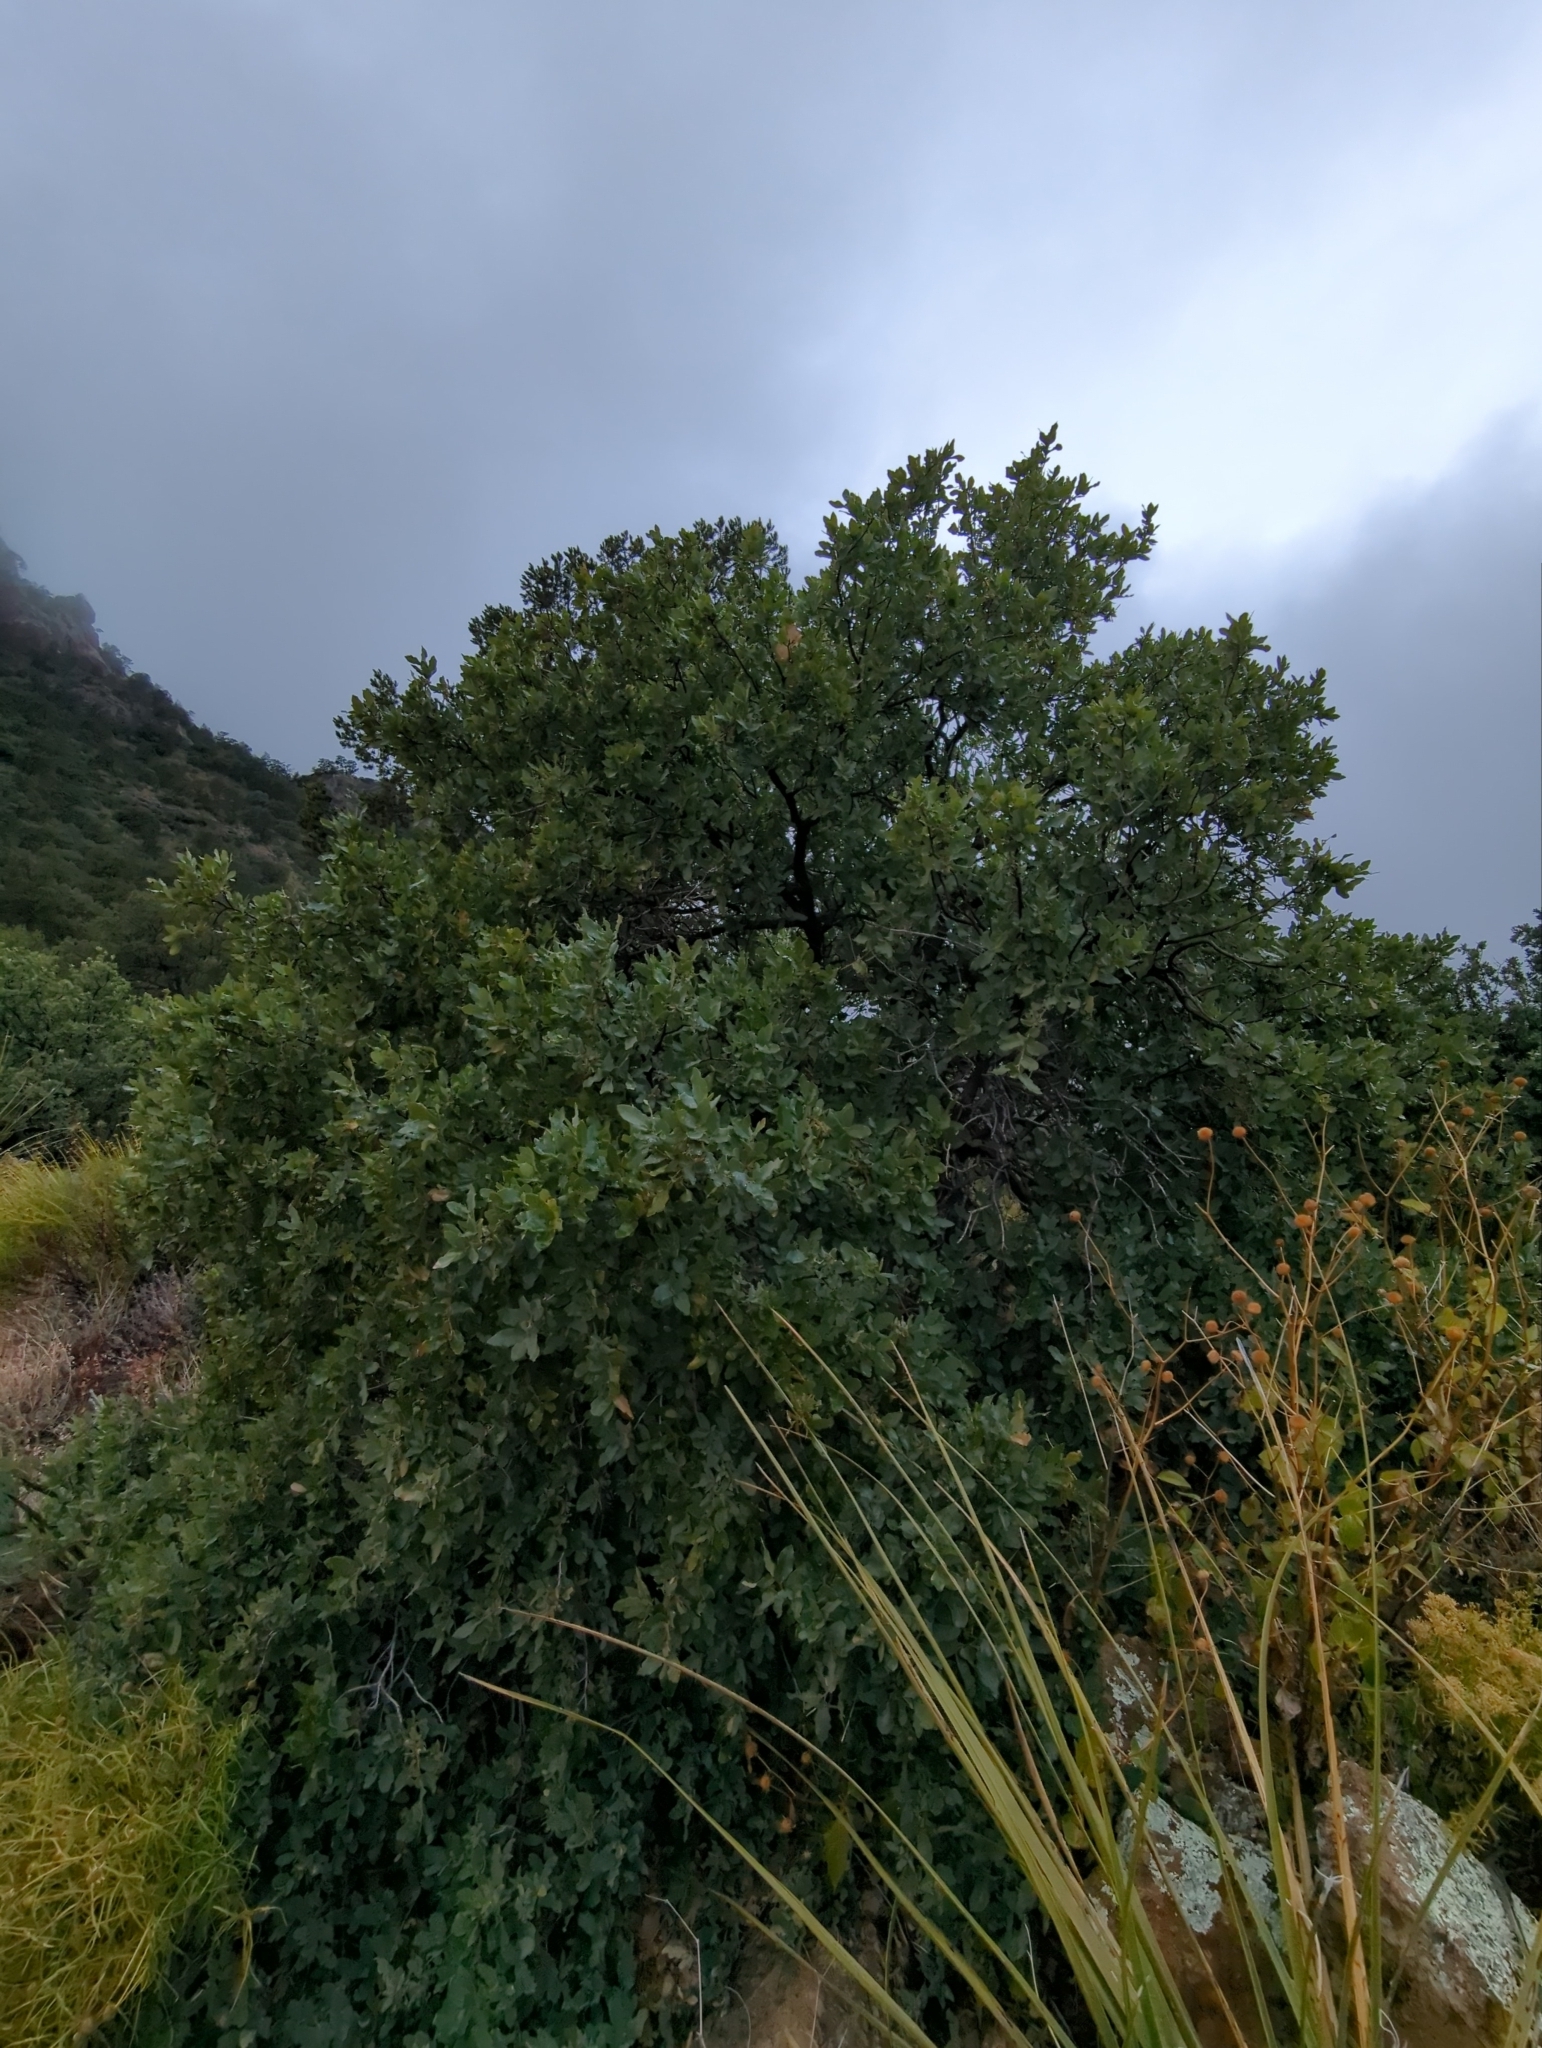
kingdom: Plantae
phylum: Tracheophyta
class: Magnoliopsida
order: Fagales
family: Fagaceae
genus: Quercus
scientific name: Quercus grisea
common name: Gray oak
